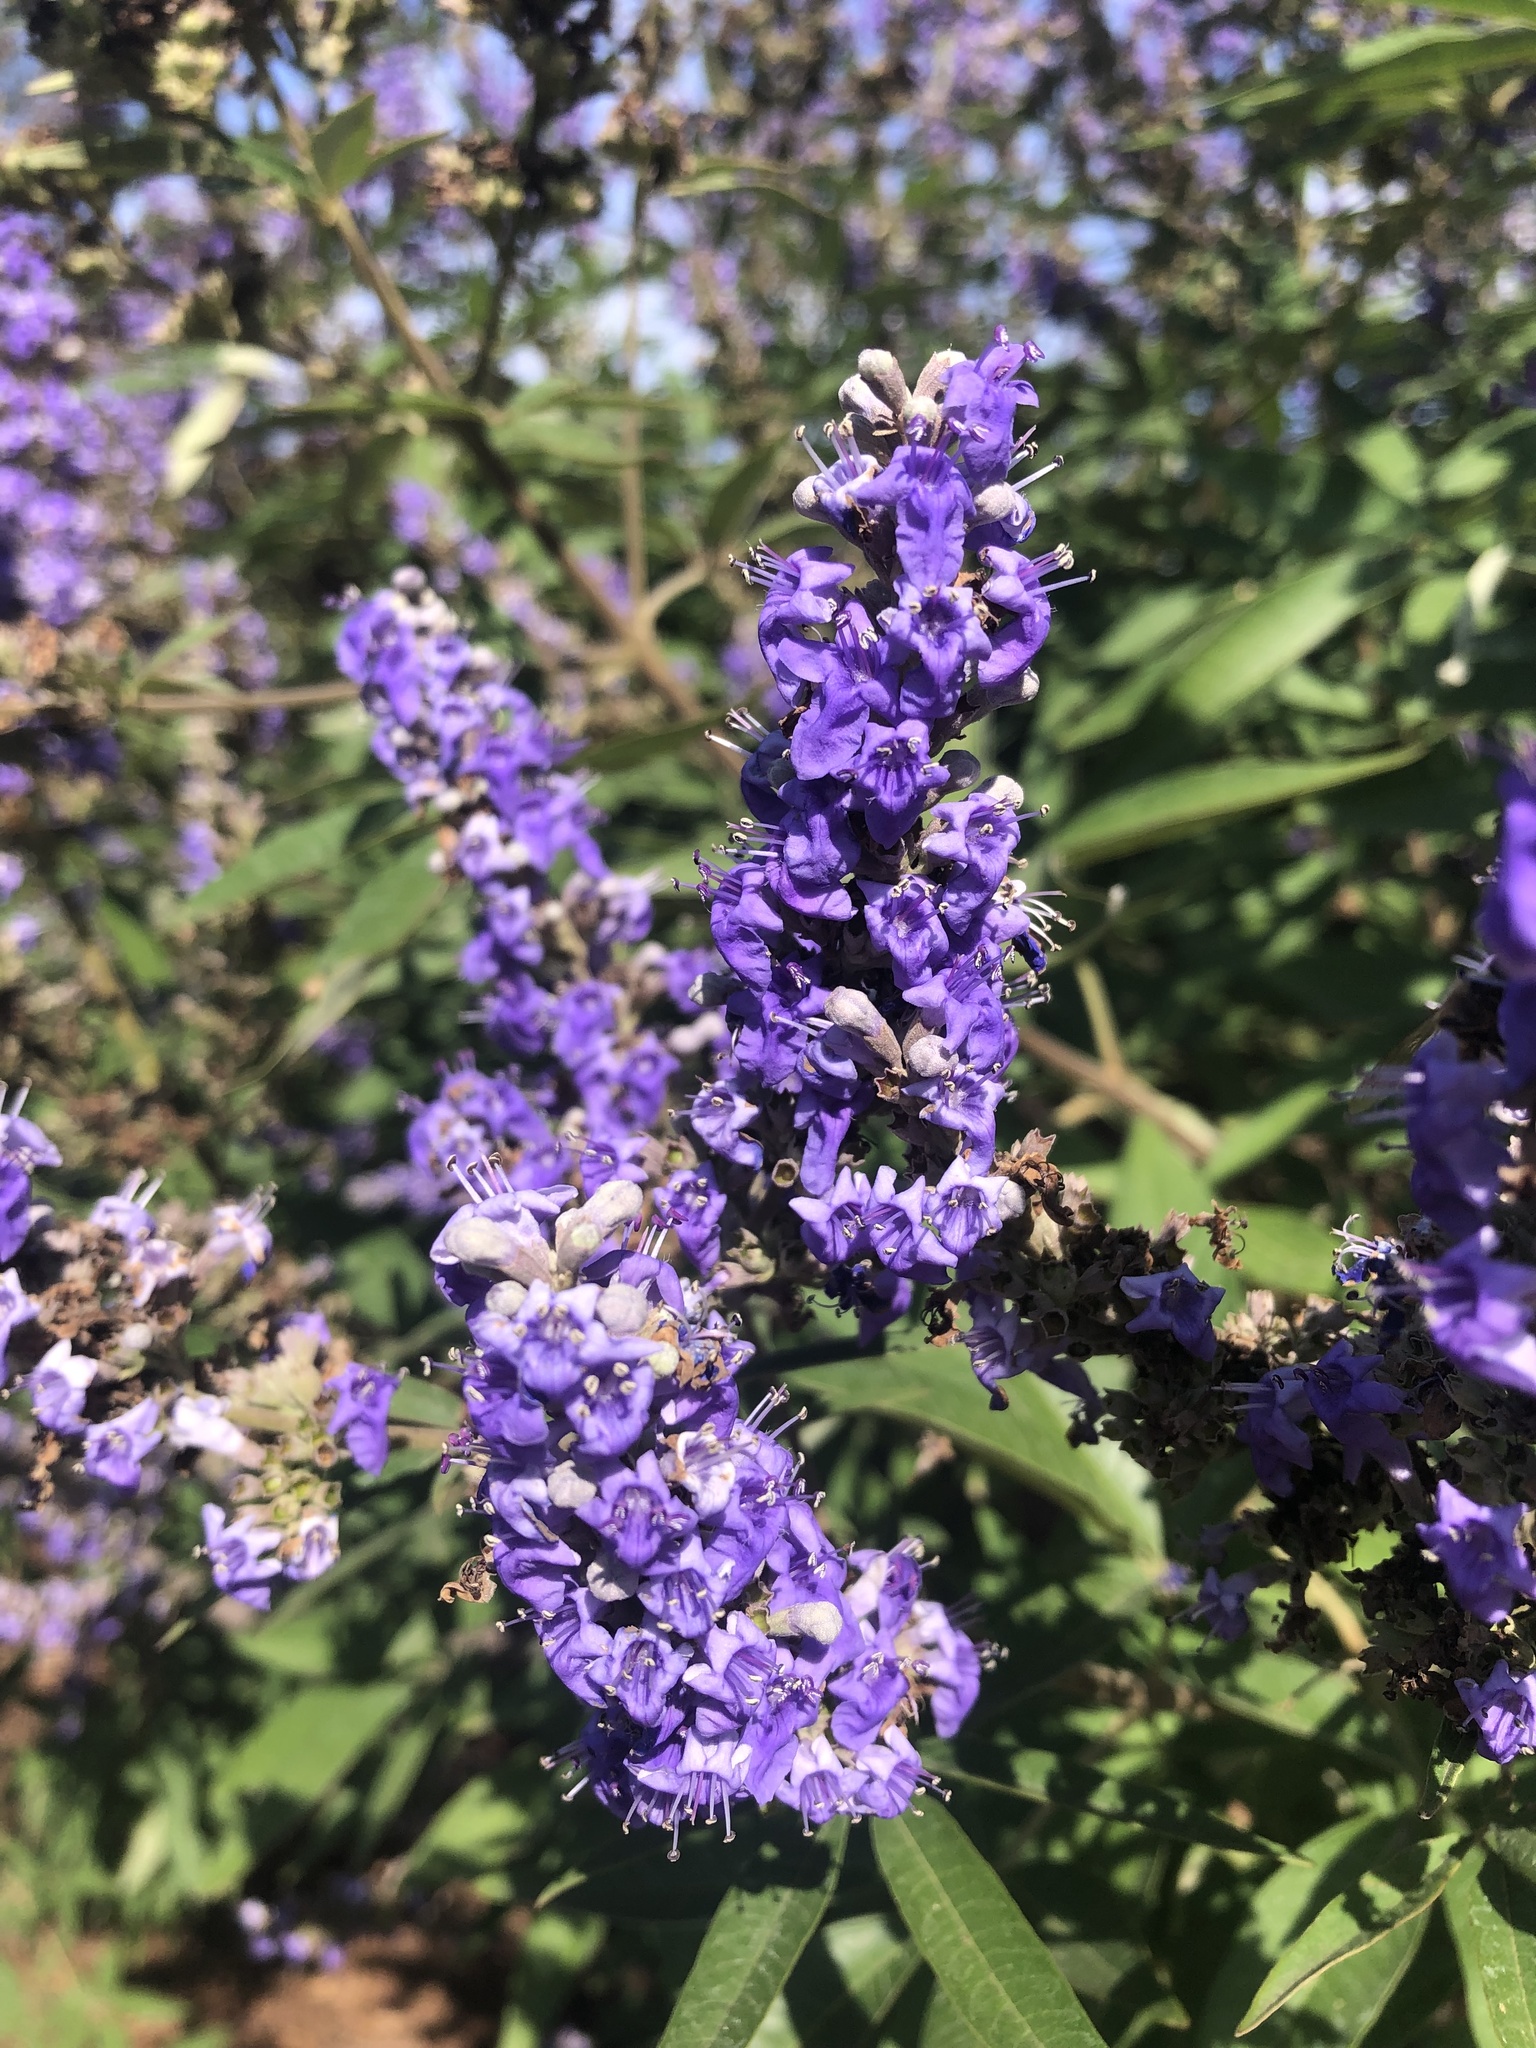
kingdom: Plantae
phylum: Tracheophyta
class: Magnoliopsida
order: Lamiales
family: Lamiaceae
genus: Vitex
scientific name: Vitex agnus-castus
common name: Chasteberry
